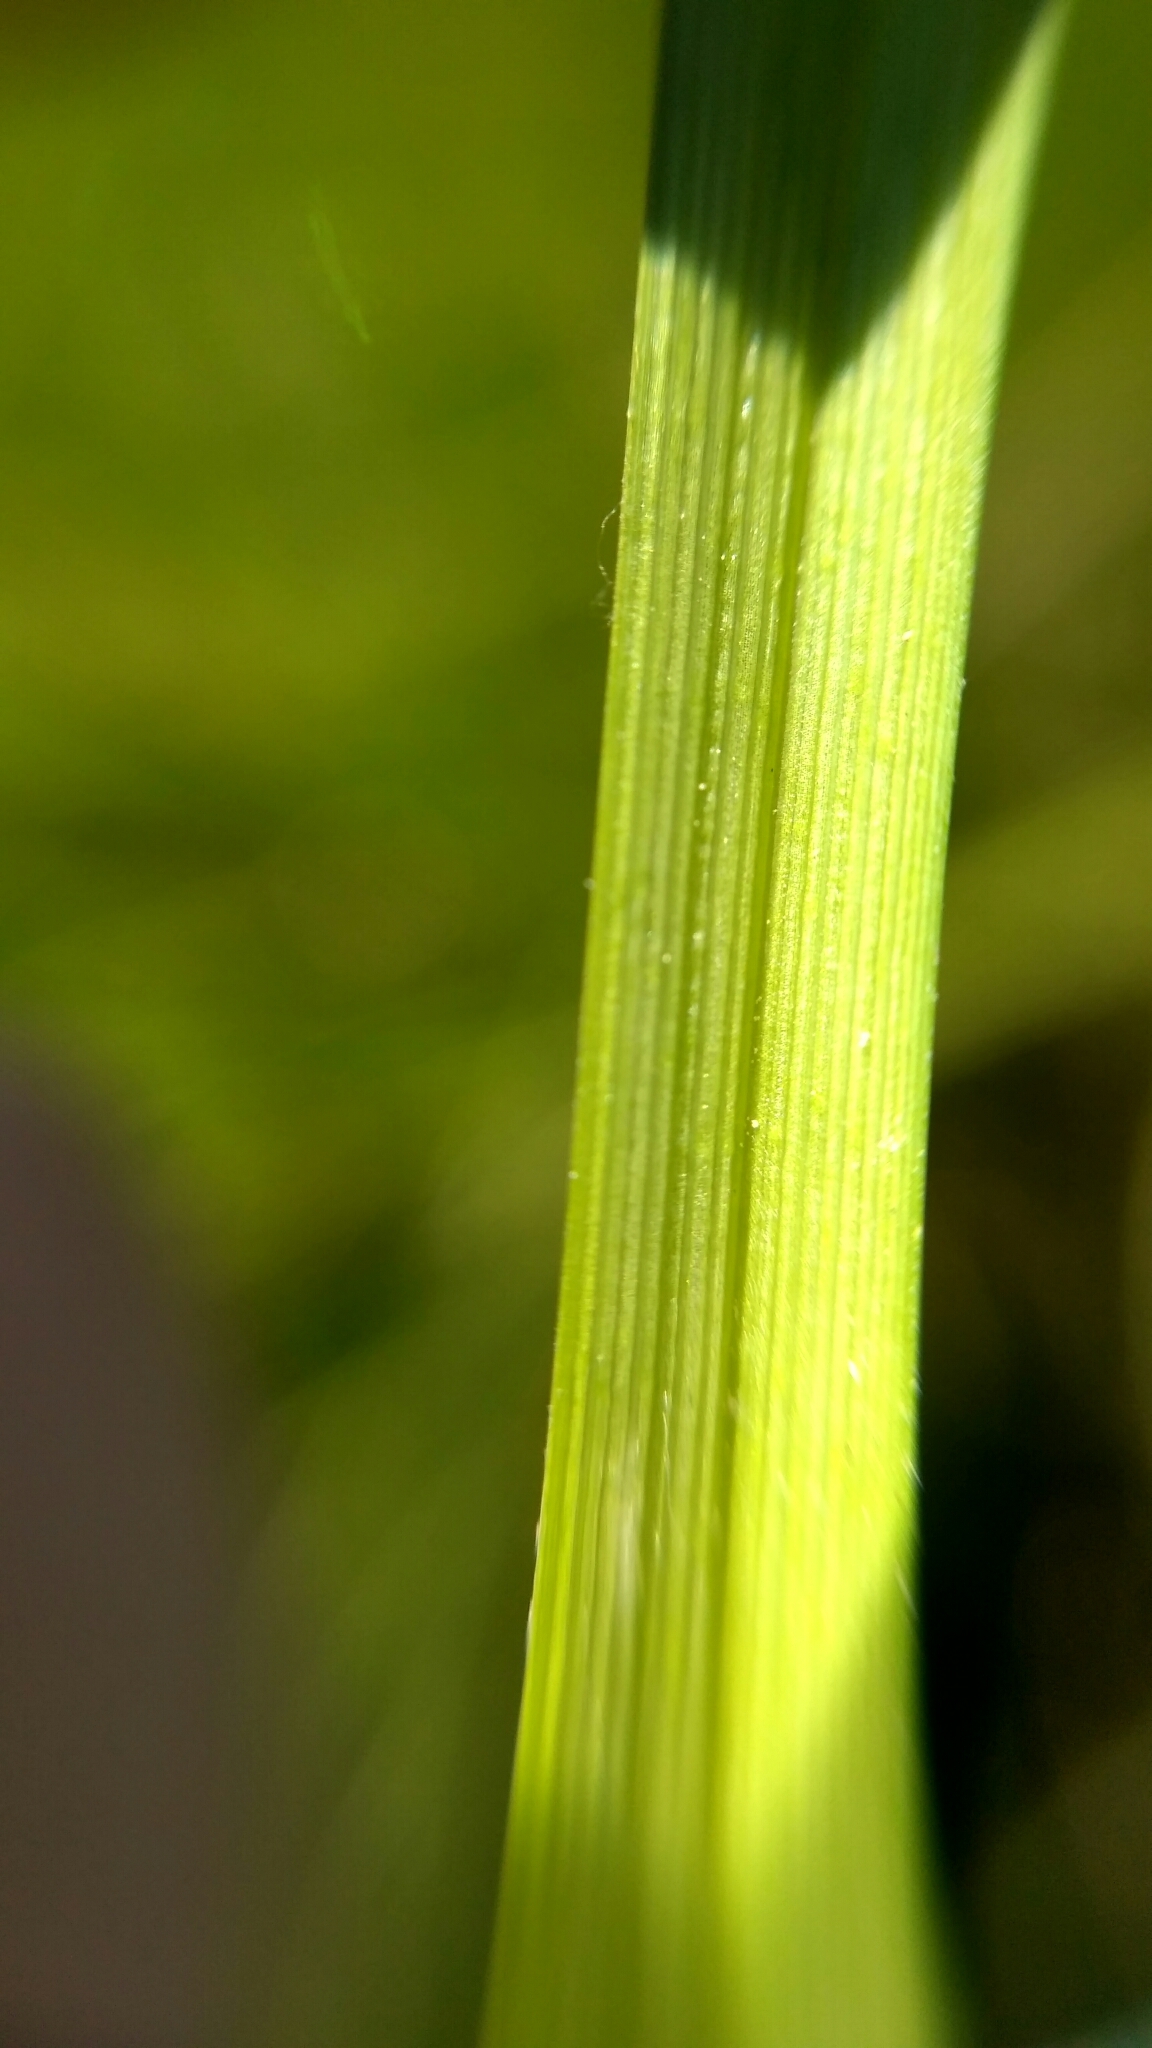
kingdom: Plantae
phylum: Tracheophyta
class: Liliopsida
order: Poales
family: Cyperaceae
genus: Carex
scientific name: Carex paniculata
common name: Greater tussock-sedge
